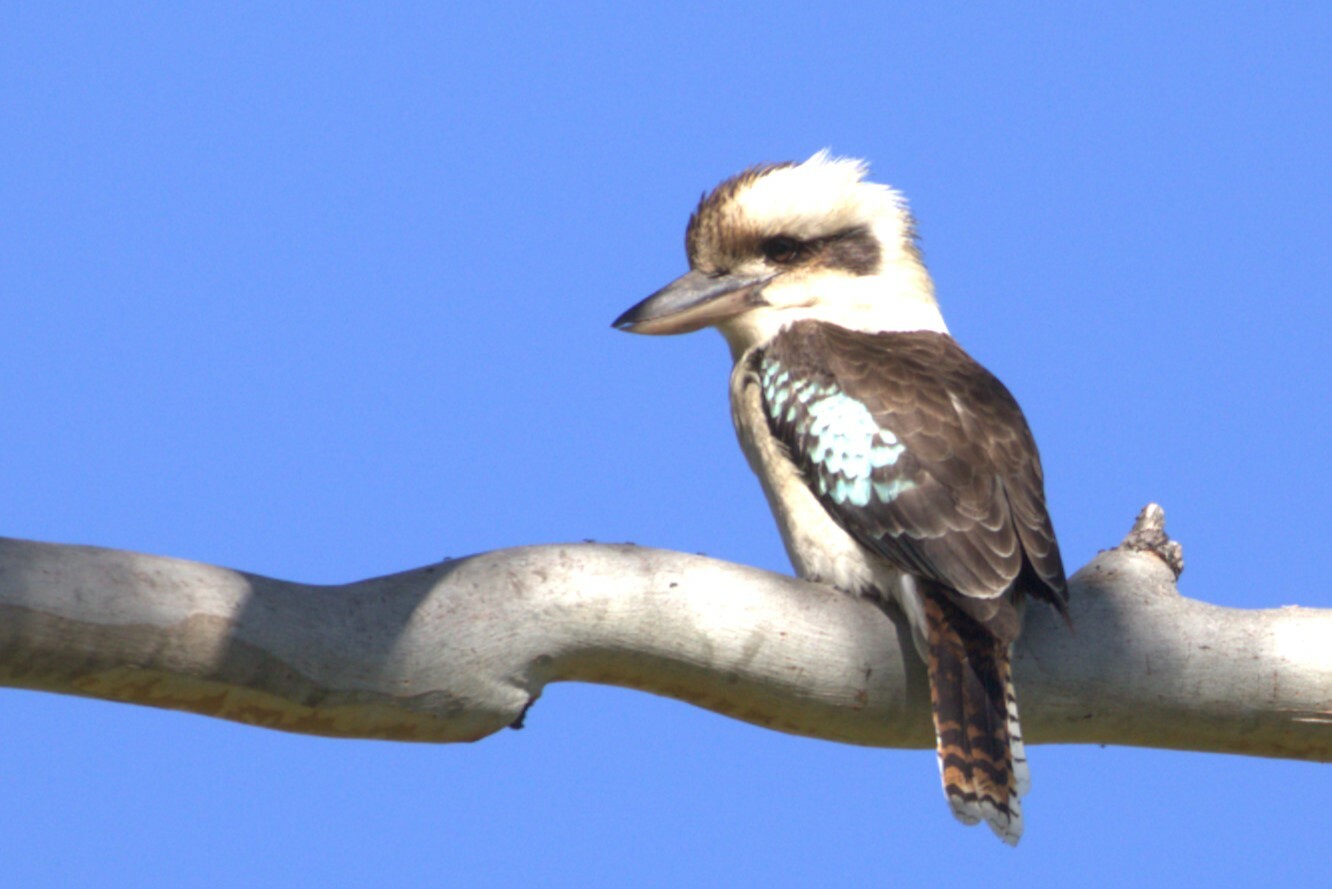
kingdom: Animalia
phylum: Chordata
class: Aves
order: Coraciiformes
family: Alcedinidae
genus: Dacelo
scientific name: Dacelo novaeguineae
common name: Laughing kookaburra
